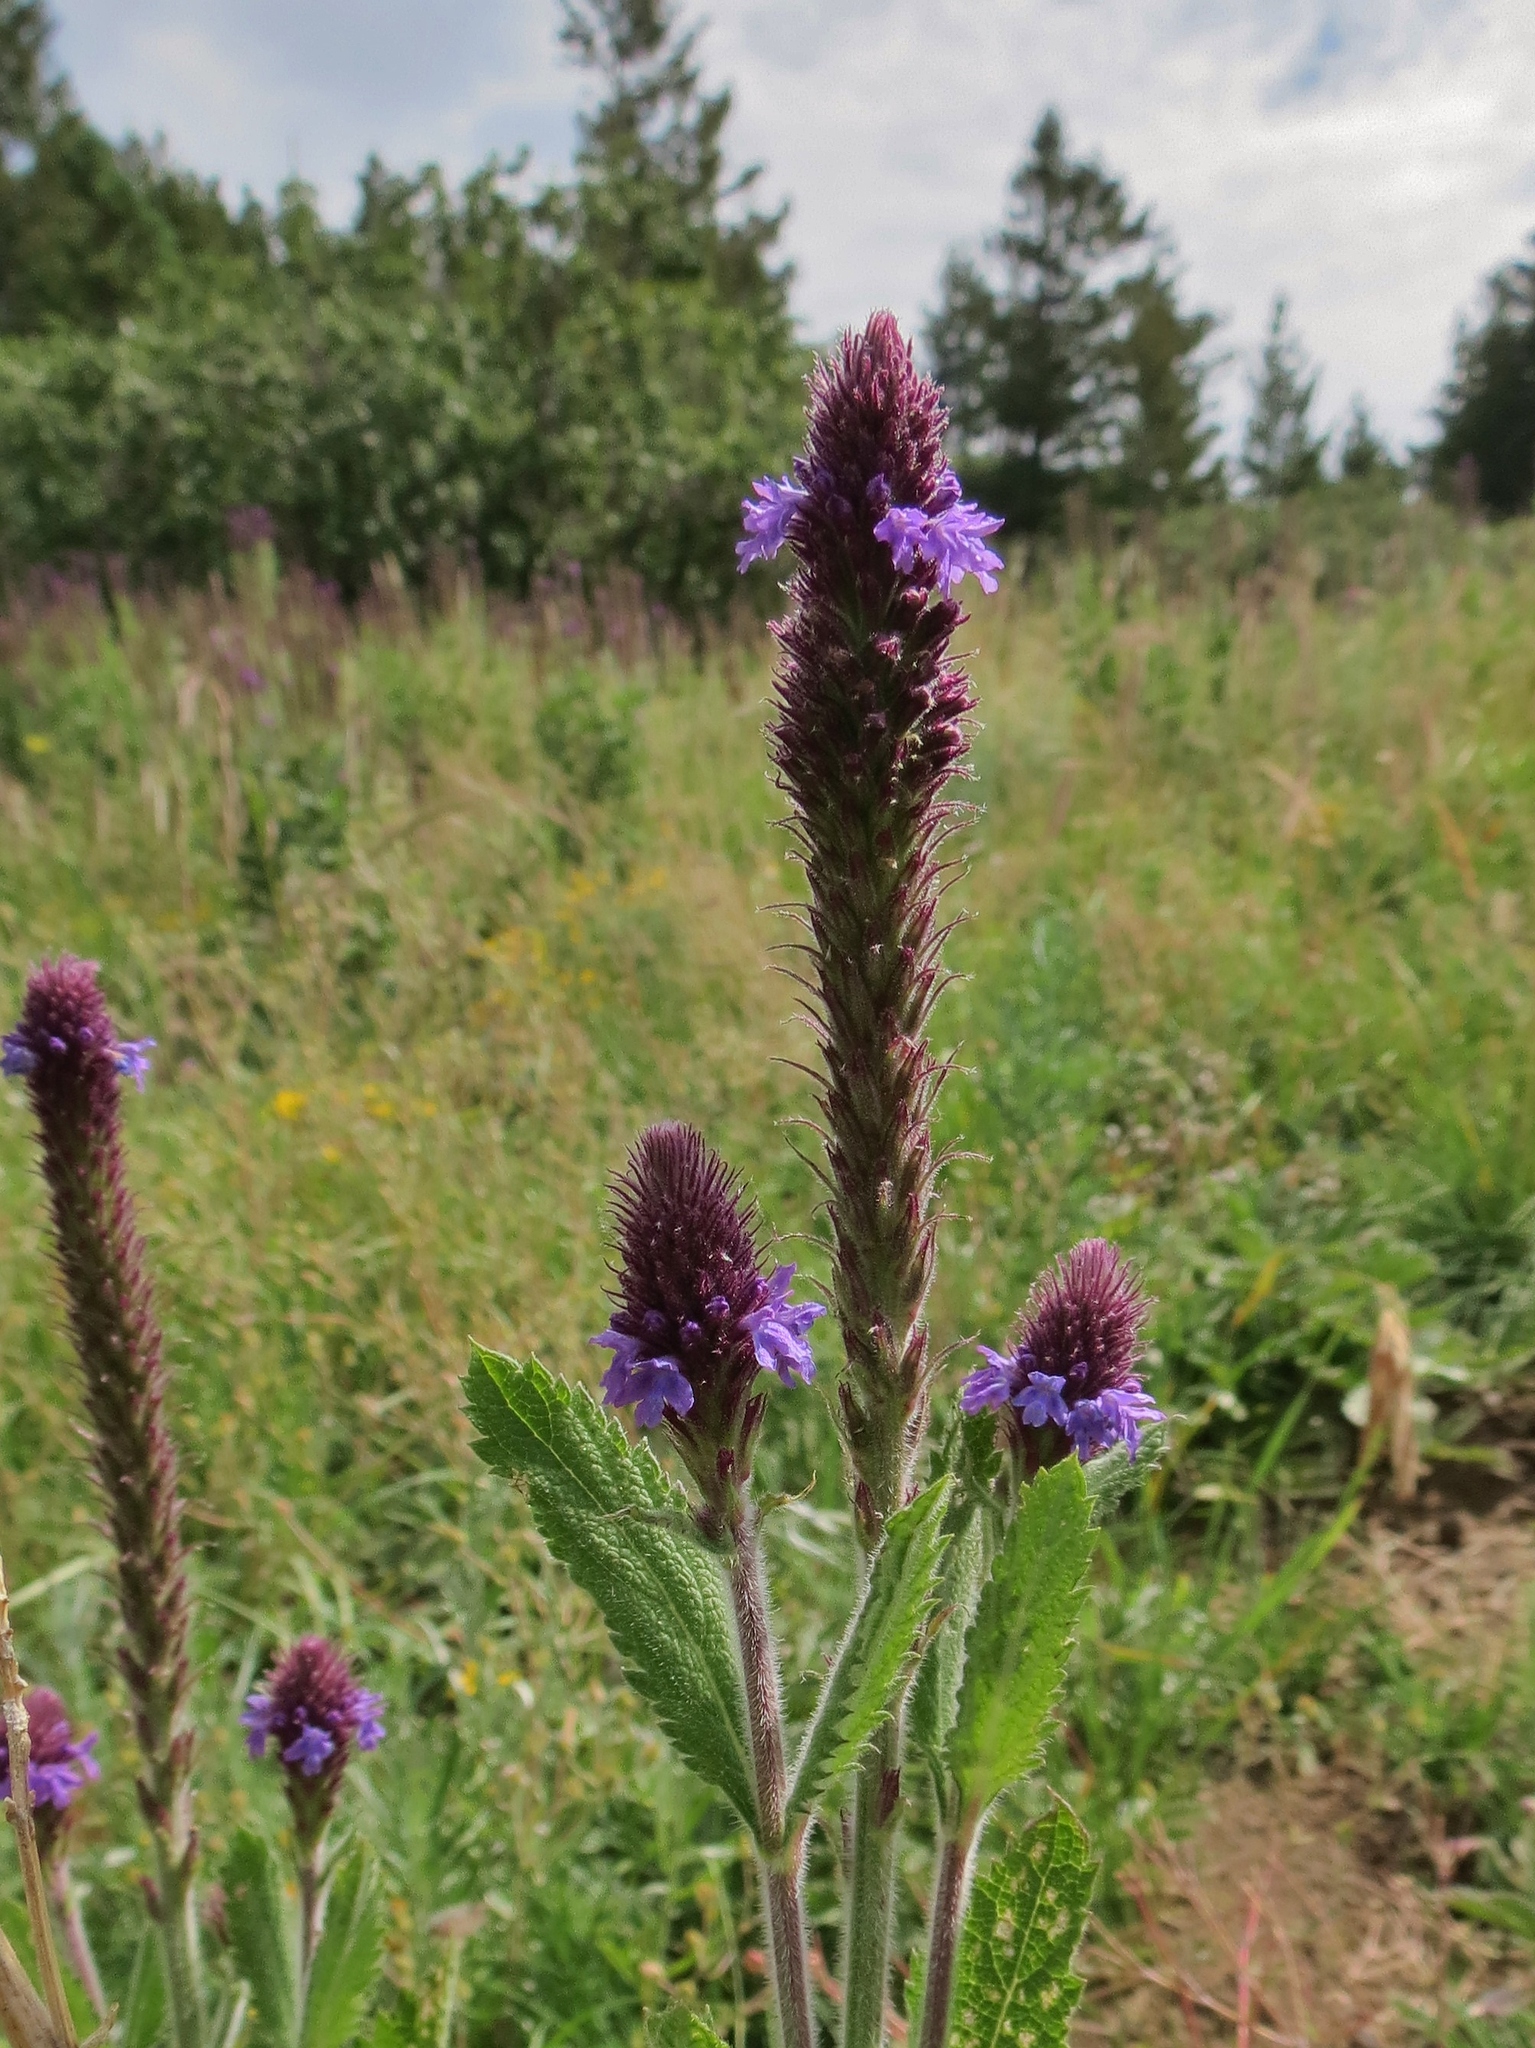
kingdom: Plantae
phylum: Tracheophyta
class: Magnoliopsida
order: Lamiales
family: Verbenaceae
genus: Verbena
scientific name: Verbena hastata
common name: American blue vervain
